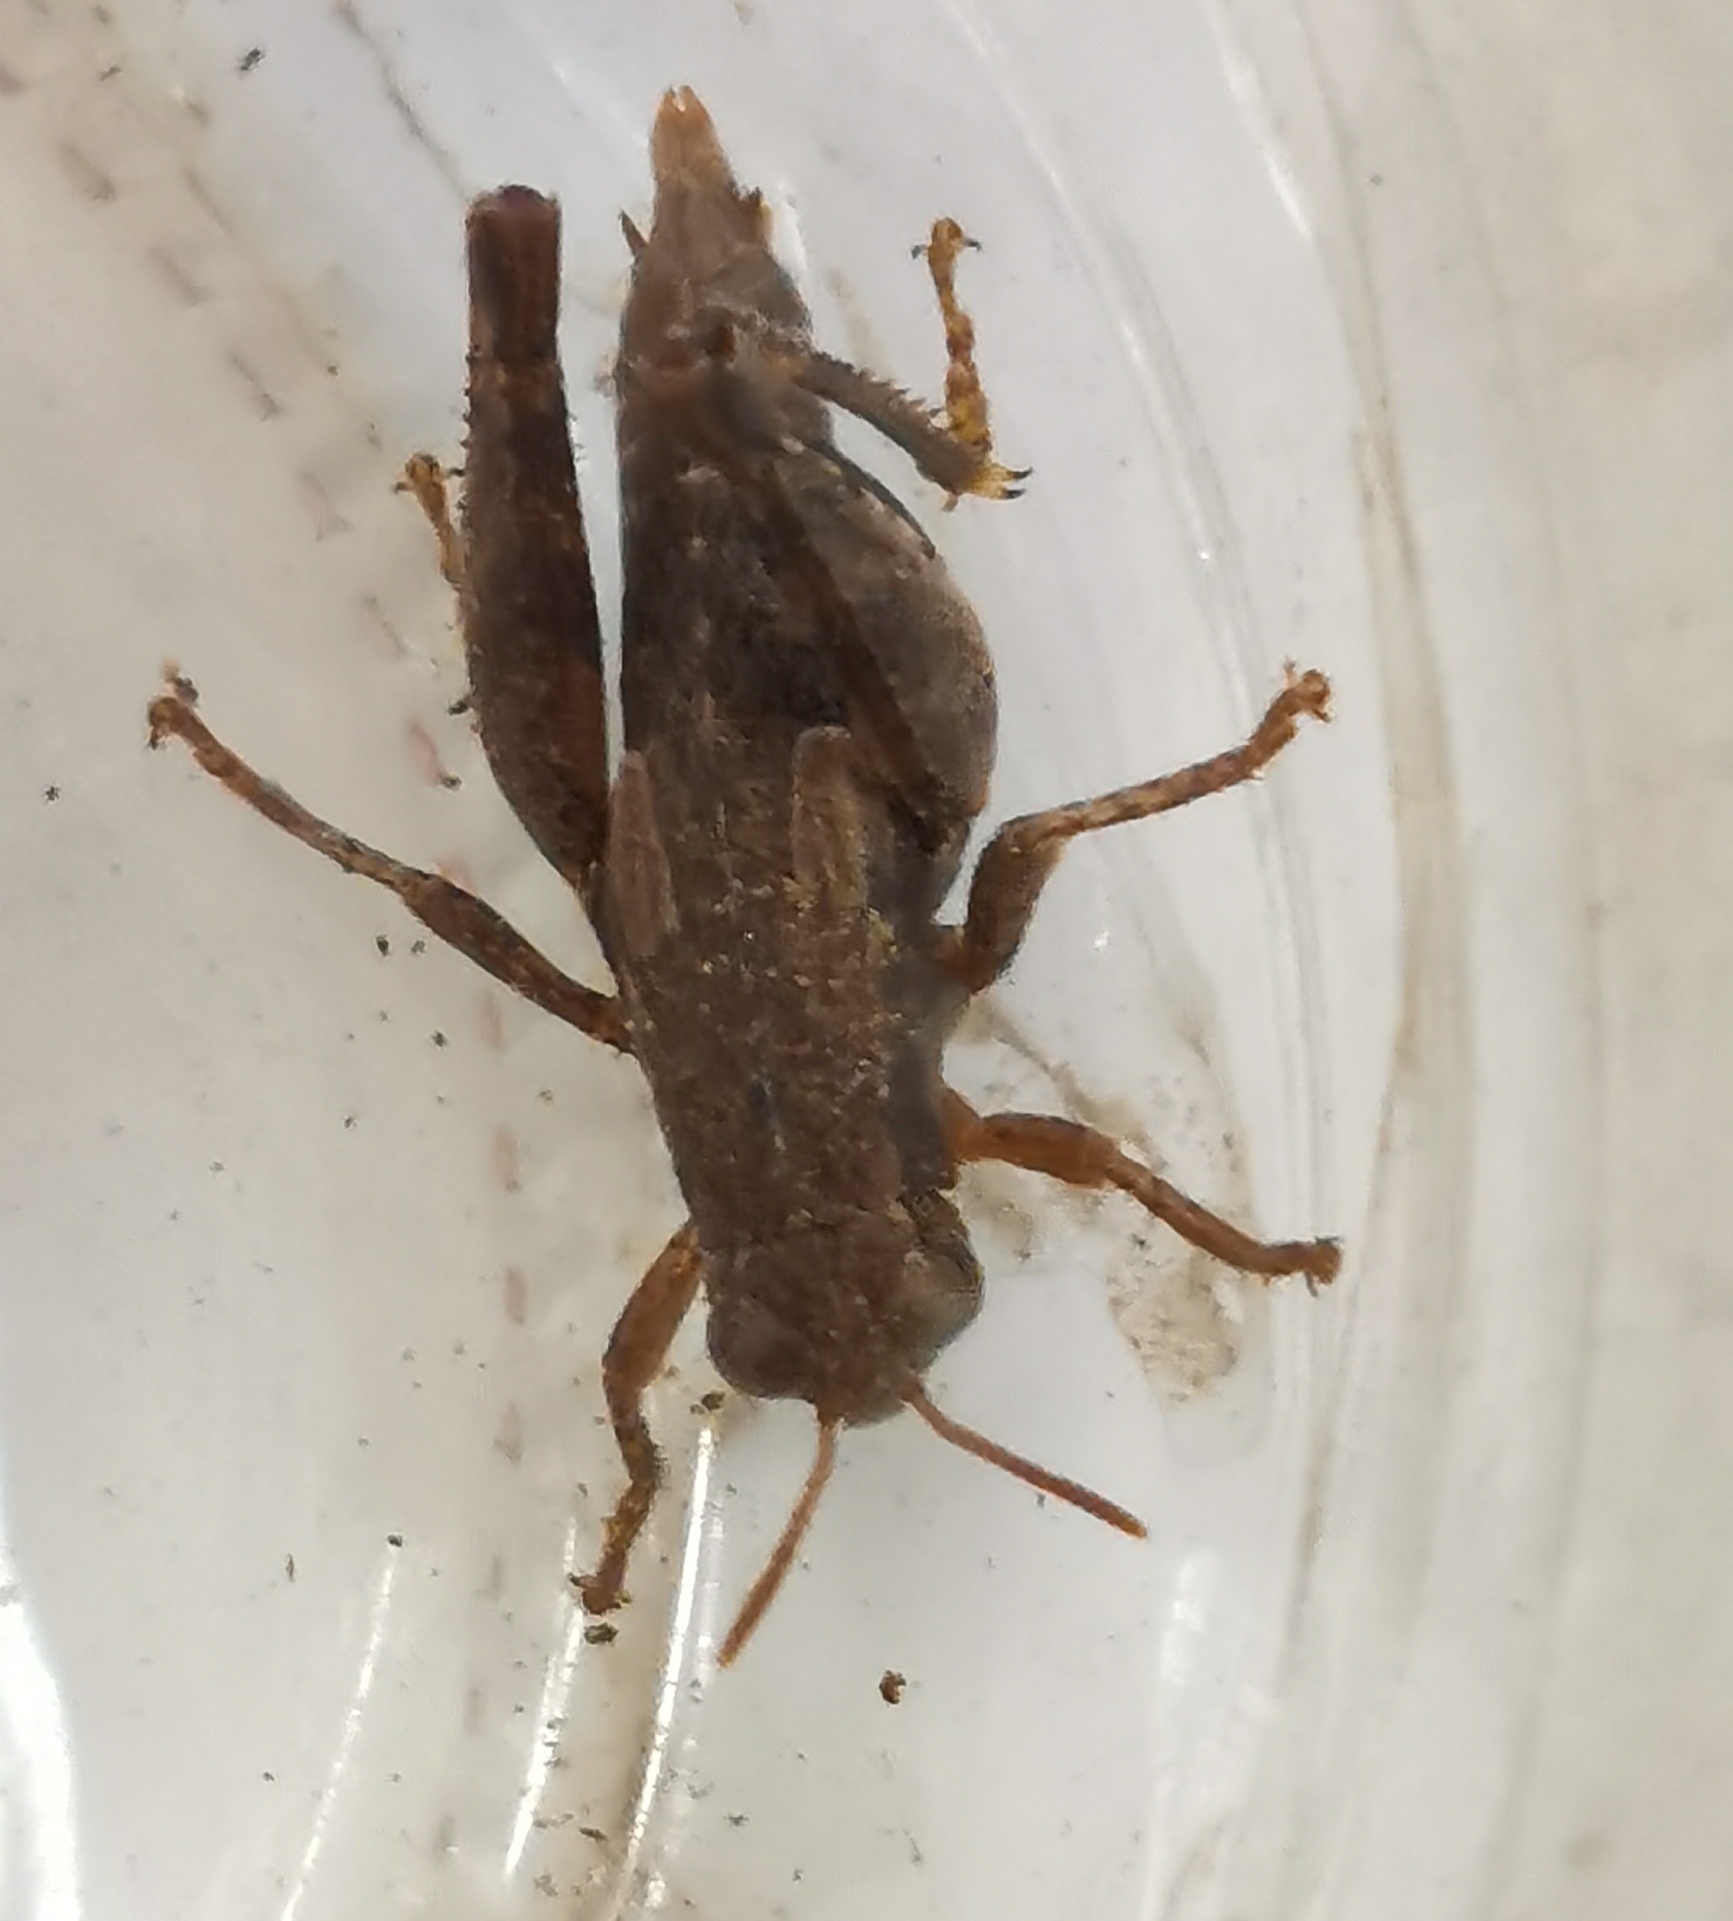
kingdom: Animalia
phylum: Arthropoda
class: Insecta
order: Orthoptera
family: Acrididae
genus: Pezotettix
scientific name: Pezotettix giornae
